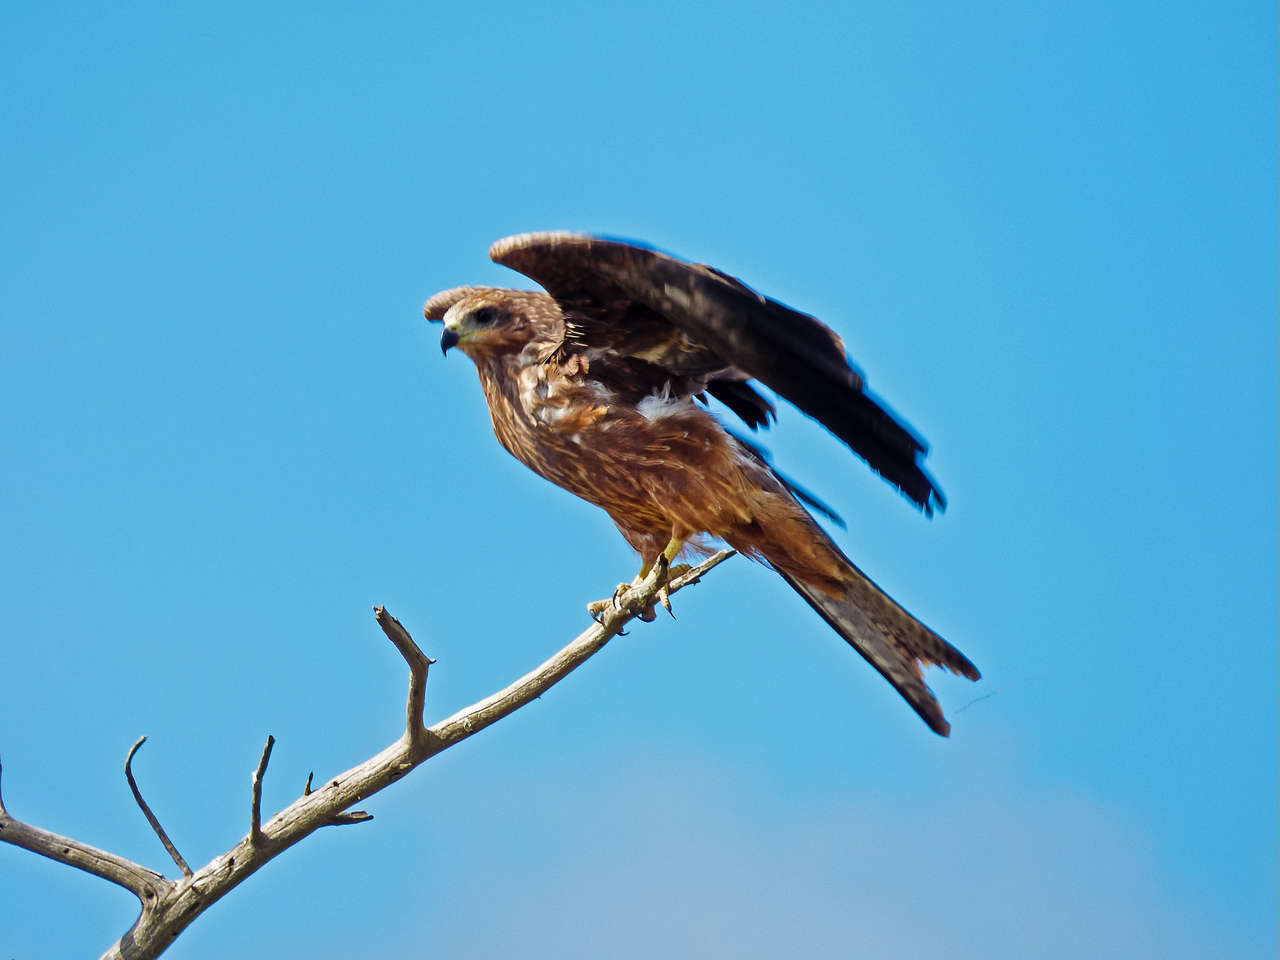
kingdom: Animalia
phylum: Chordata
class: Aves
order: Accipitriformes
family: Accipitridae
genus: Milvus
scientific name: Milvus migrans
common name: Black kite
